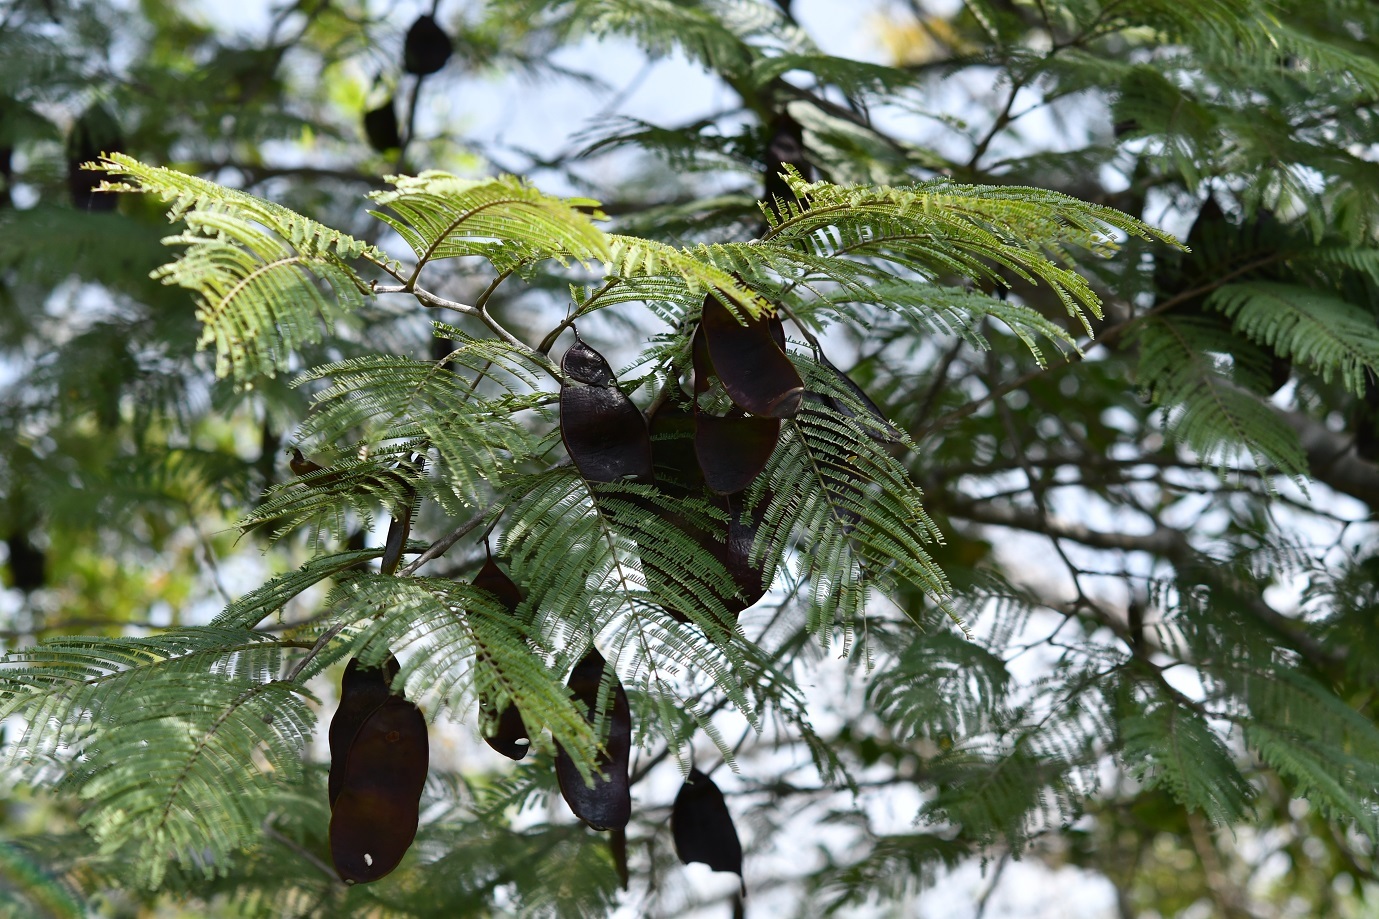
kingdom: Plantae
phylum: Tracheophyta
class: Magnoliopsida
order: Fabales
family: Fabaceae
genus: Lysiloma
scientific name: Lysiloma auritum
